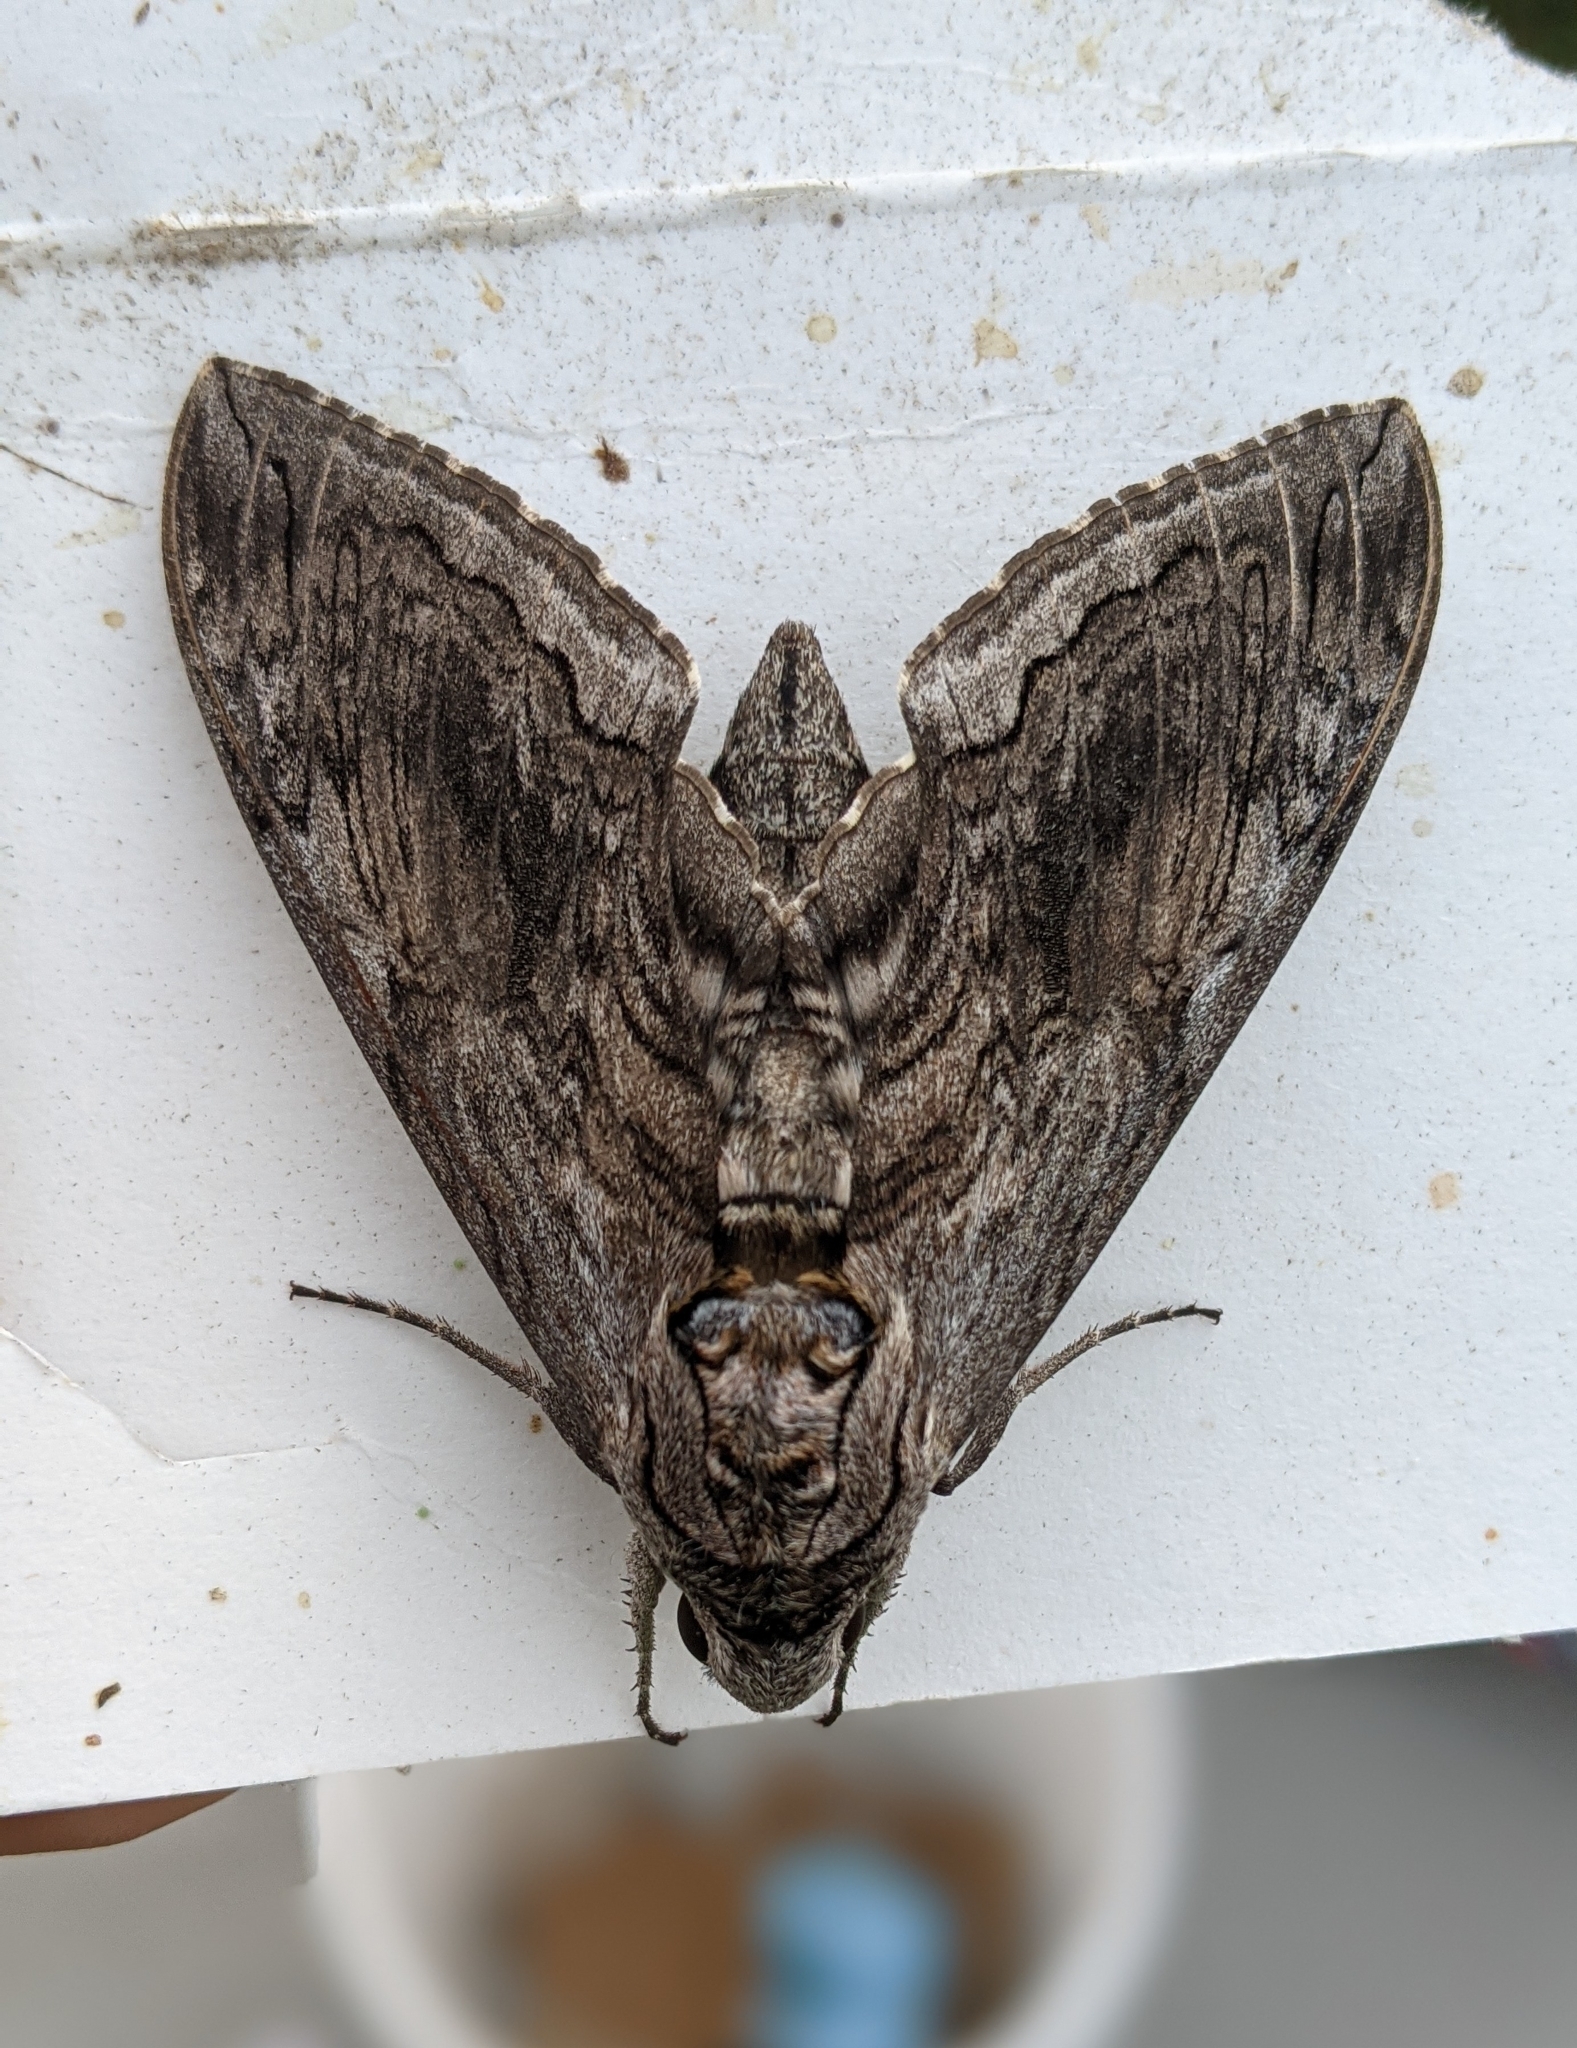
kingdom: Animalia
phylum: Arthropoda
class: Insecta
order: Lepidoptera
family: Sphingidae
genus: Manduca
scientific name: Manduca quinquemaculatus
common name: Five-spotted hawk-moth
